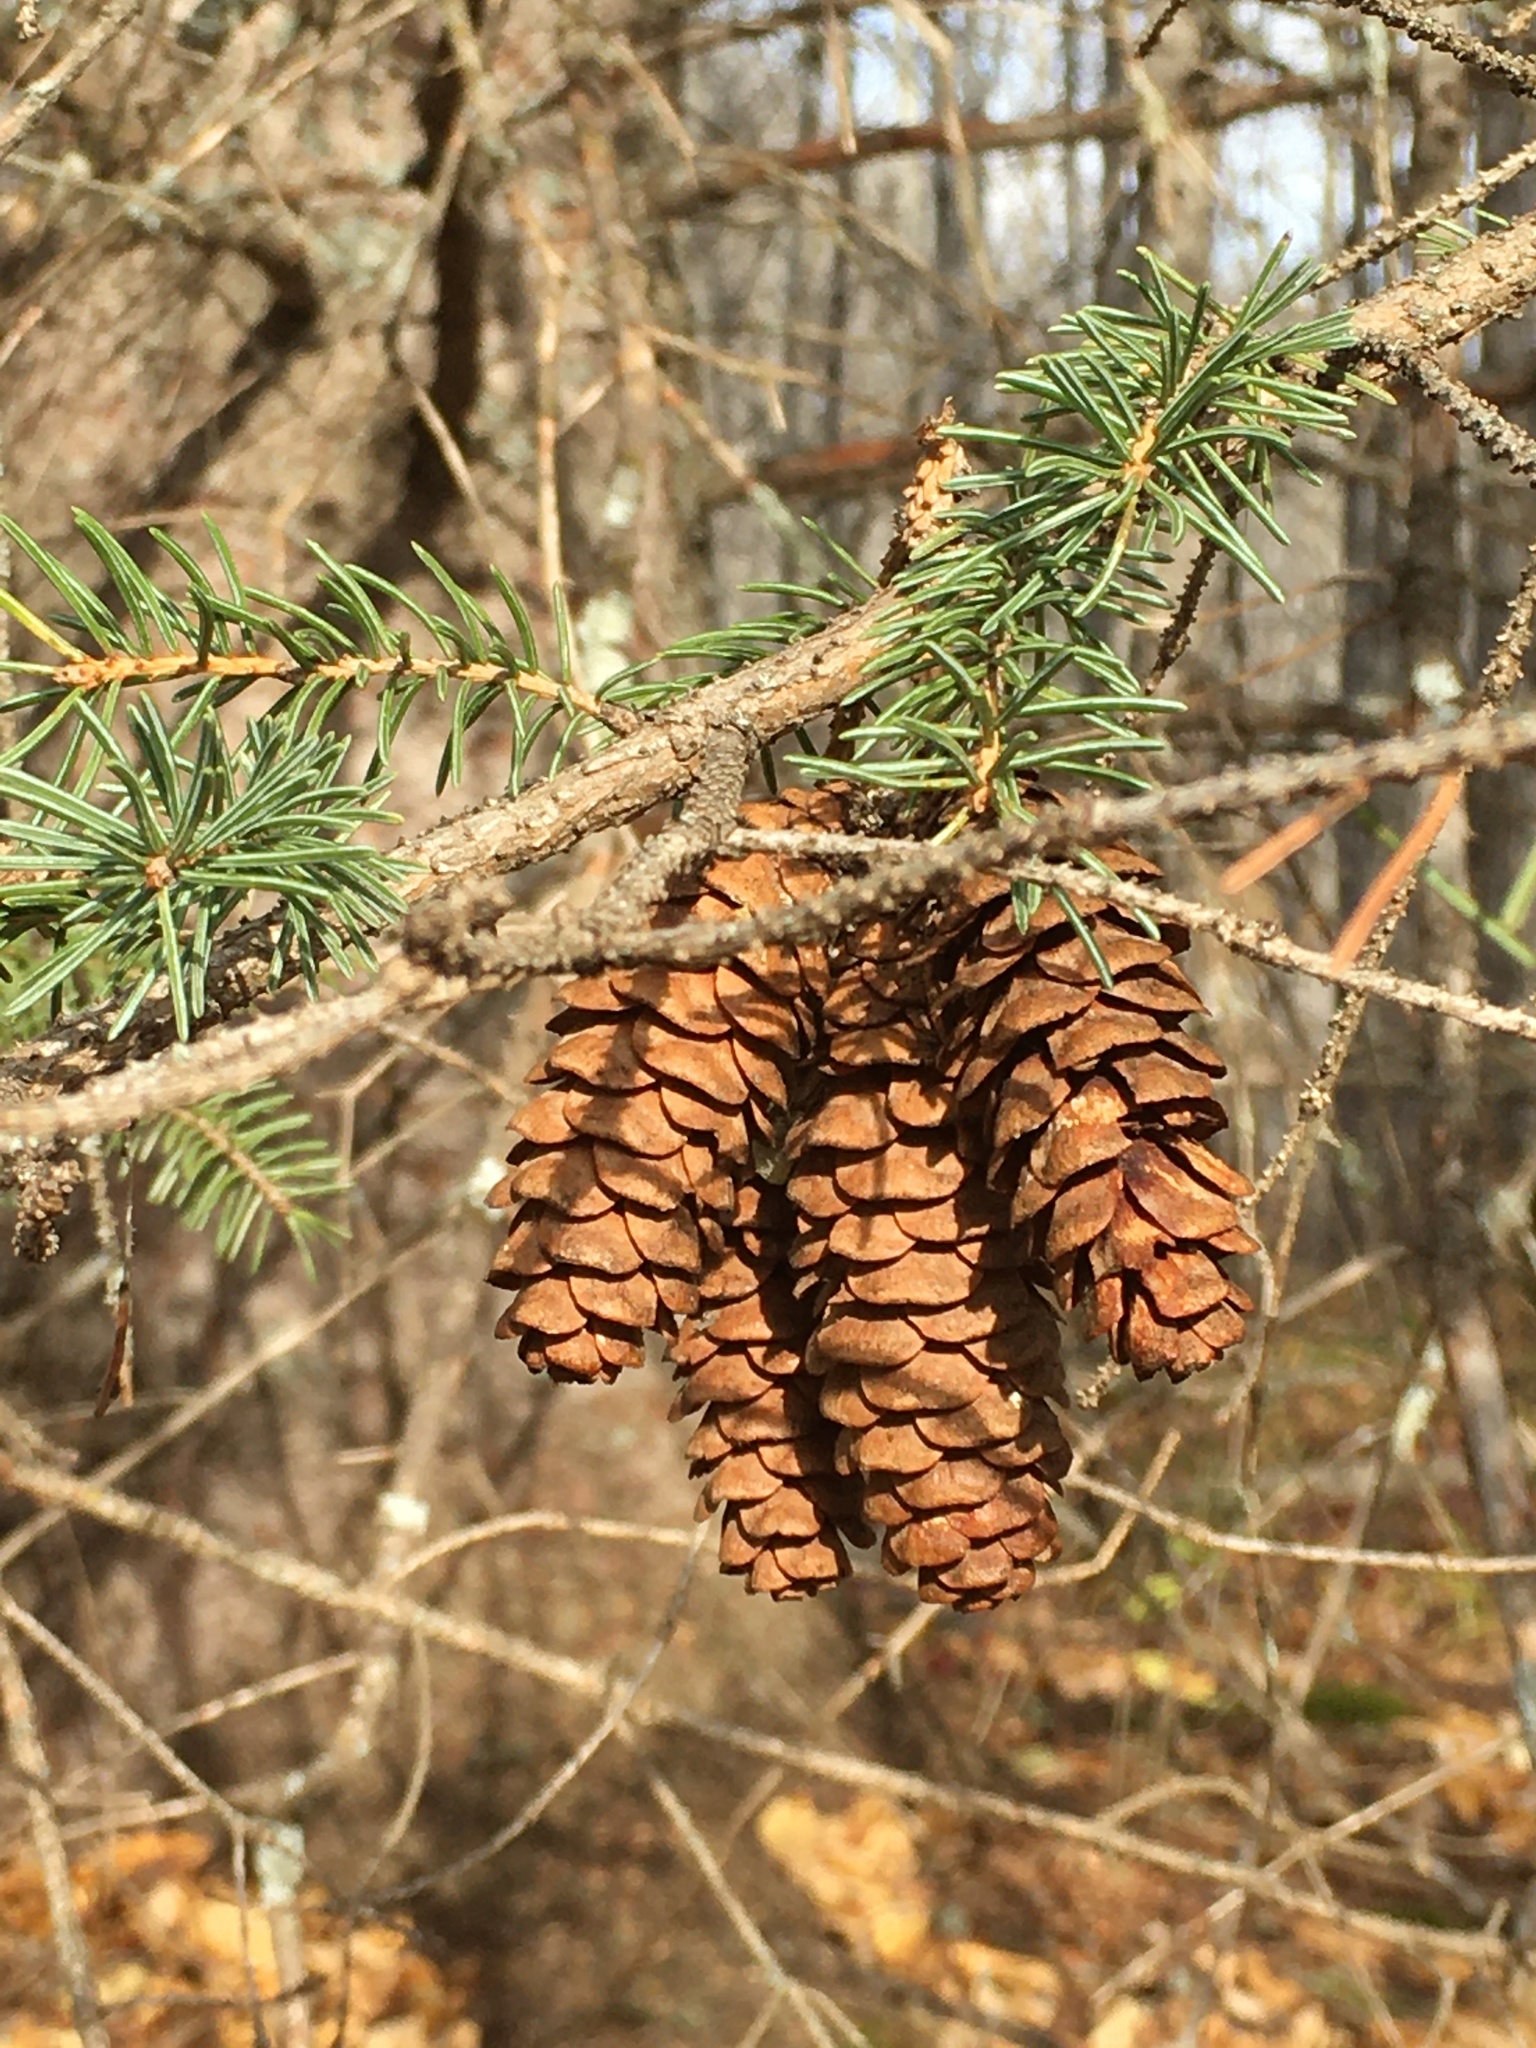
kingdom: Plantae
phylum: Tracheophyta
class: Pinopsida
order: Pinales
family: Pinaceae
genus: Picea
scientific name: Picea glauca
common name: White spruce
